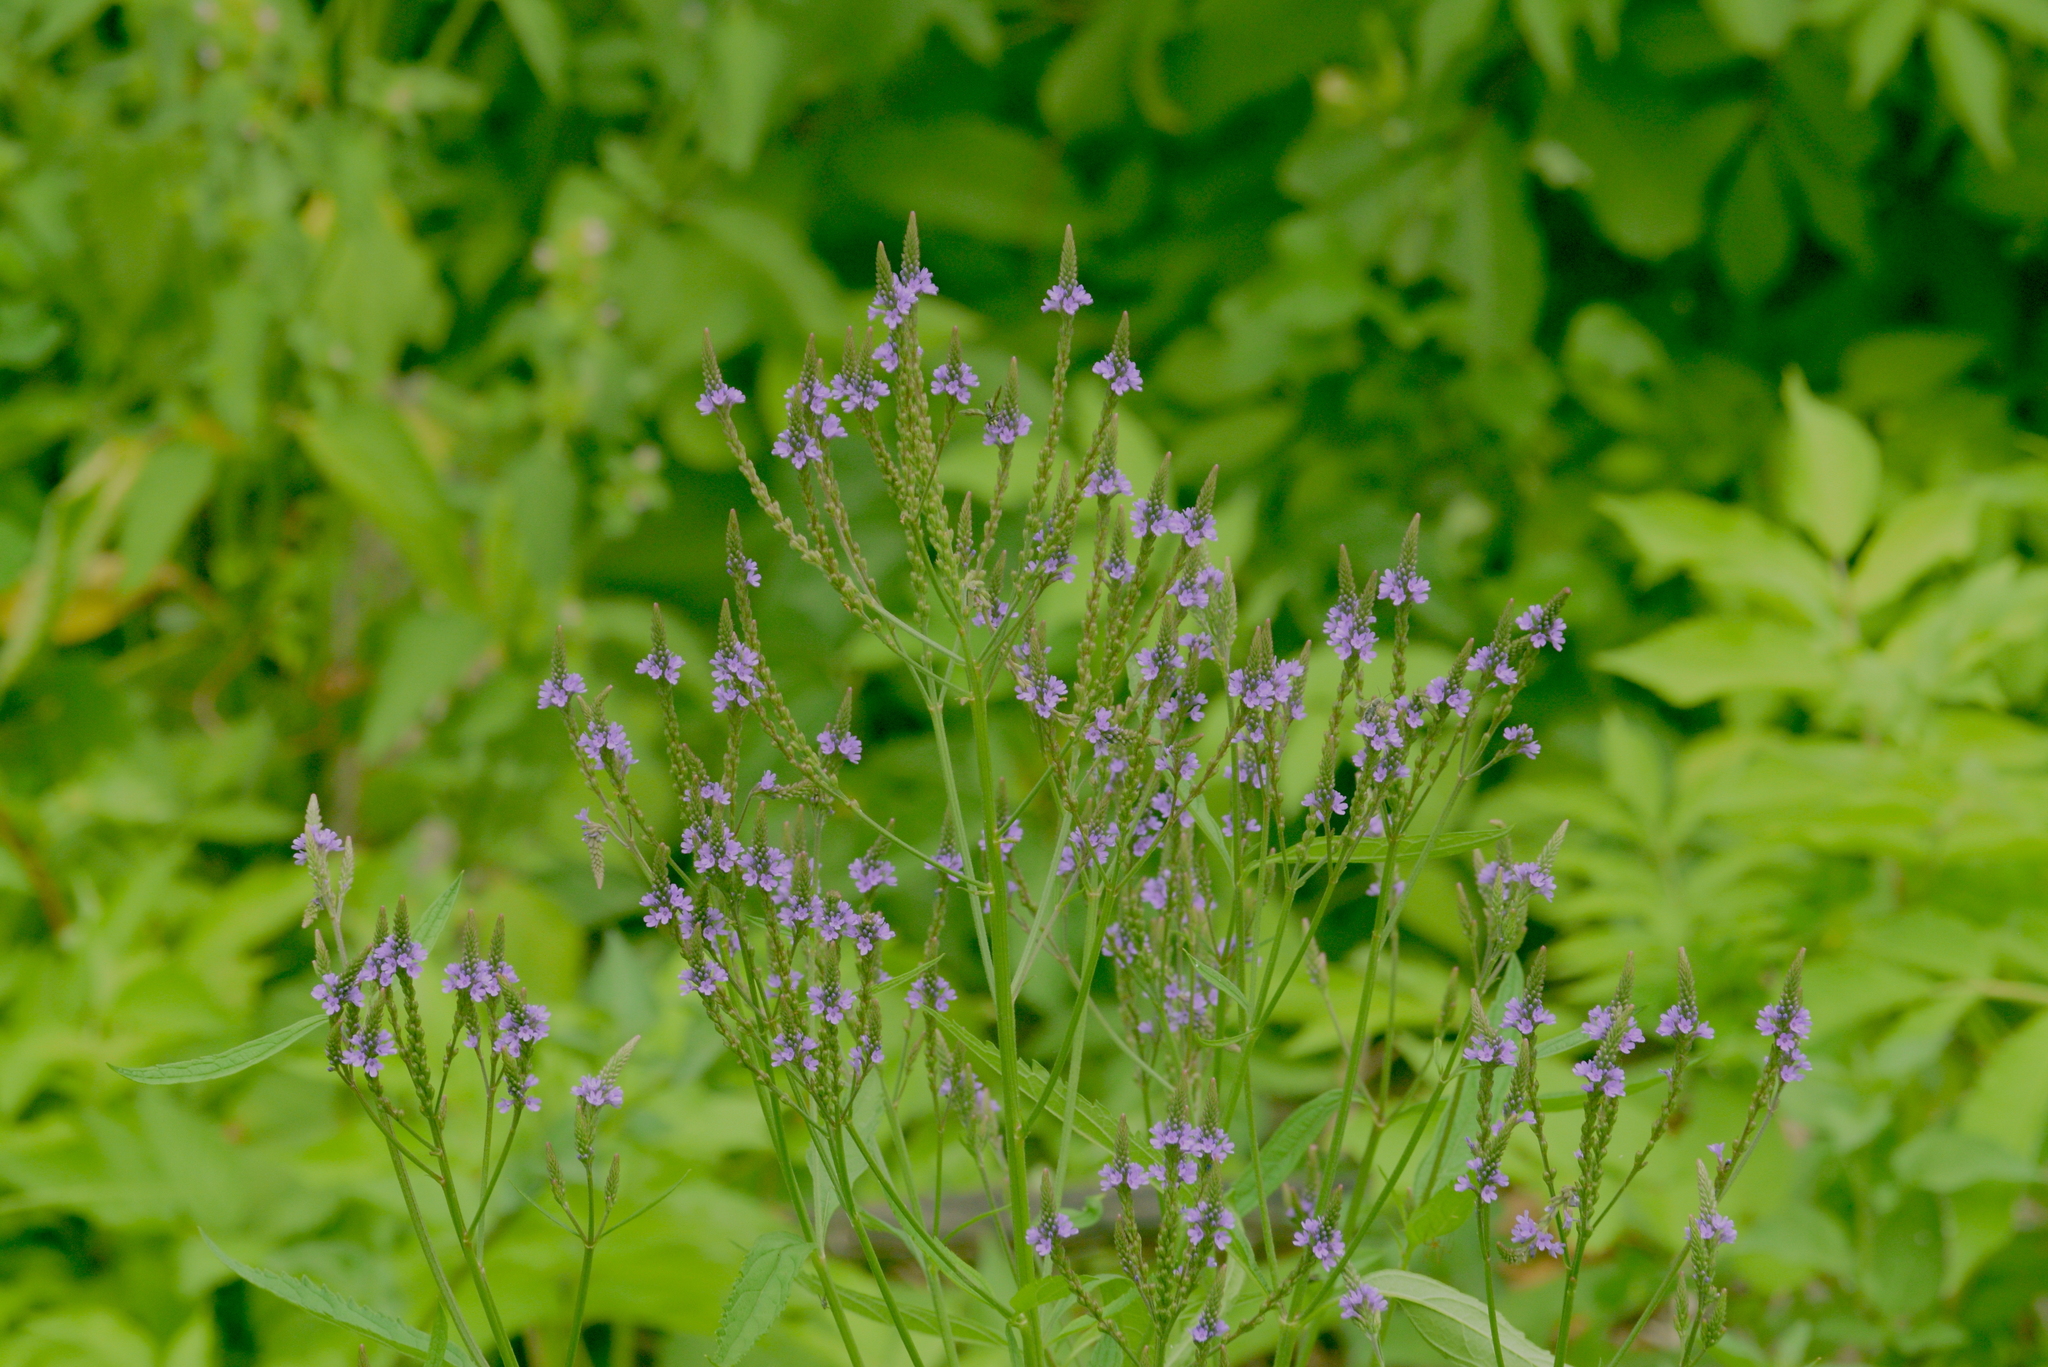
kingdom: Plantae
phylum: Tracheophyta
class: Magnoliopsida
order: Lamiales
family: Verbenaceae
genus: Verbena
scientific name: Verbena hastata
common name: American blue vervain
